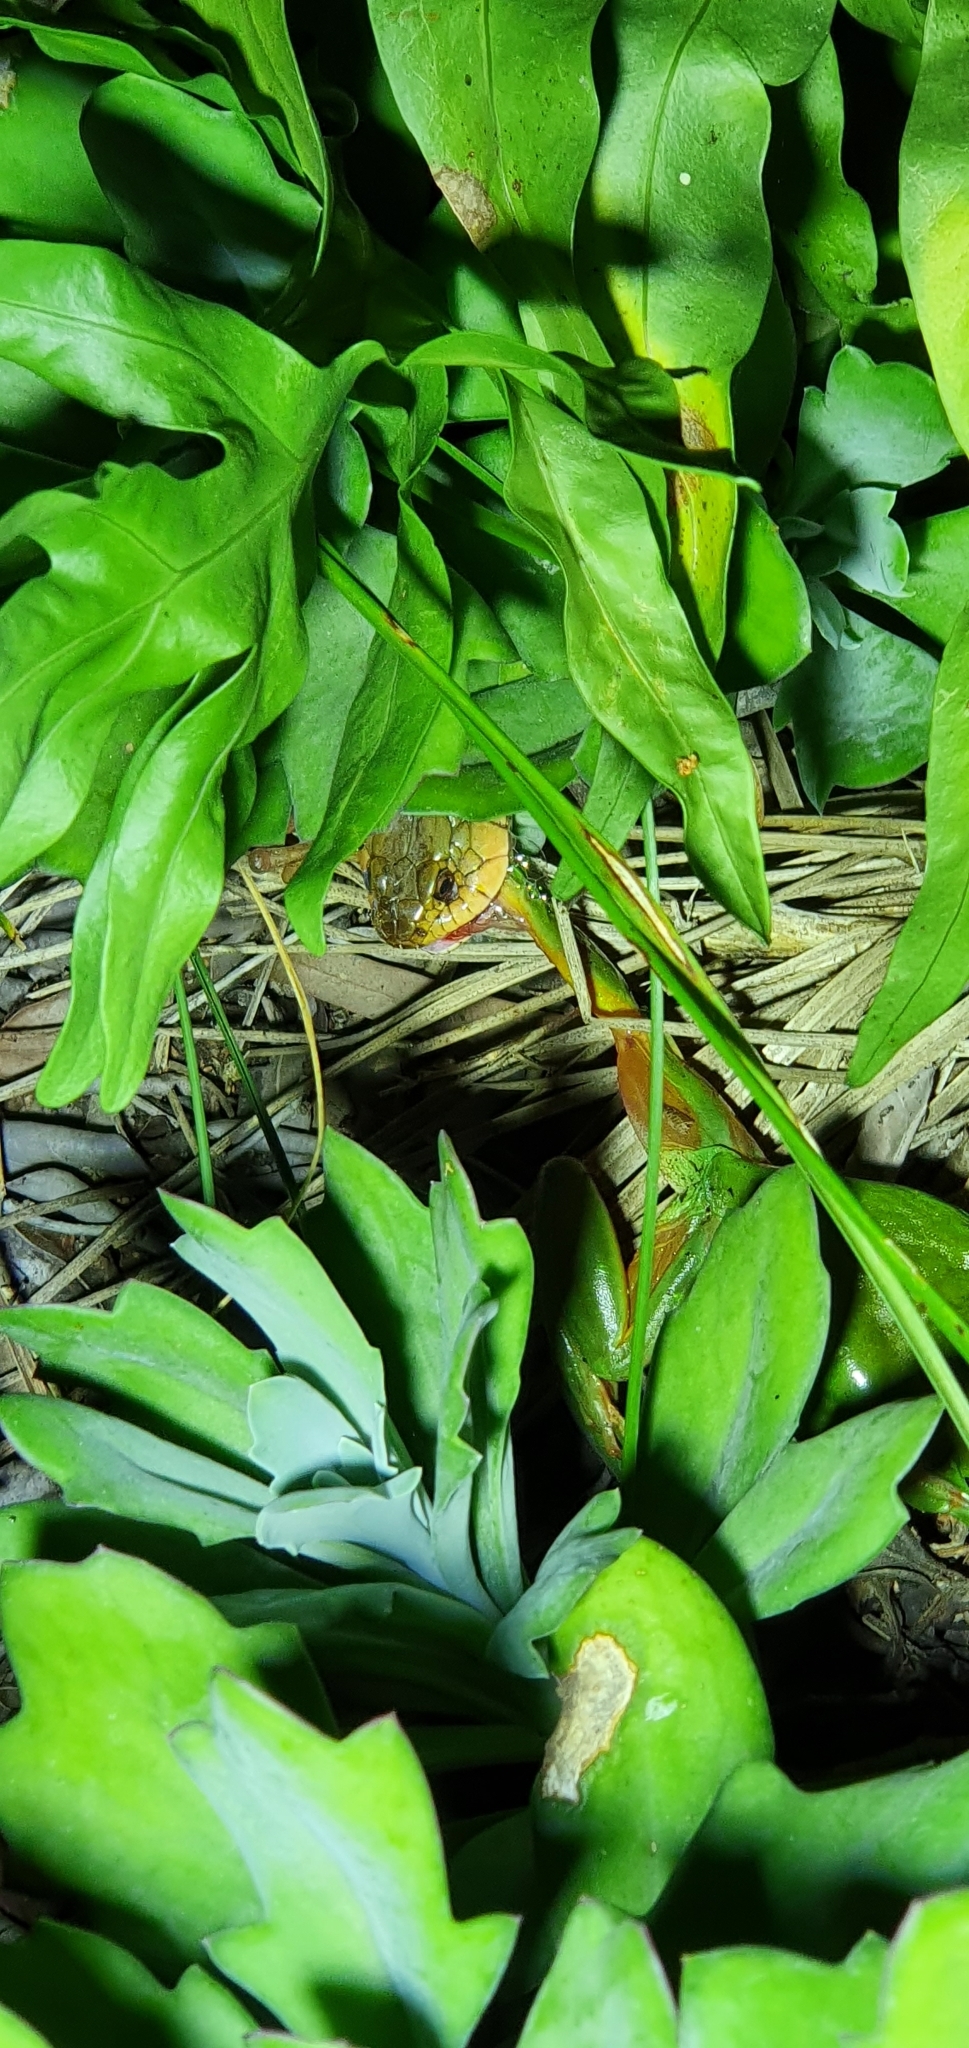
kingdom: Animalia
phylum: Chordata
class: Squamata
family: Colubridae
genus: Tropidonophis
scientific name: Tropidonophis mairii
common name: Common keelback
